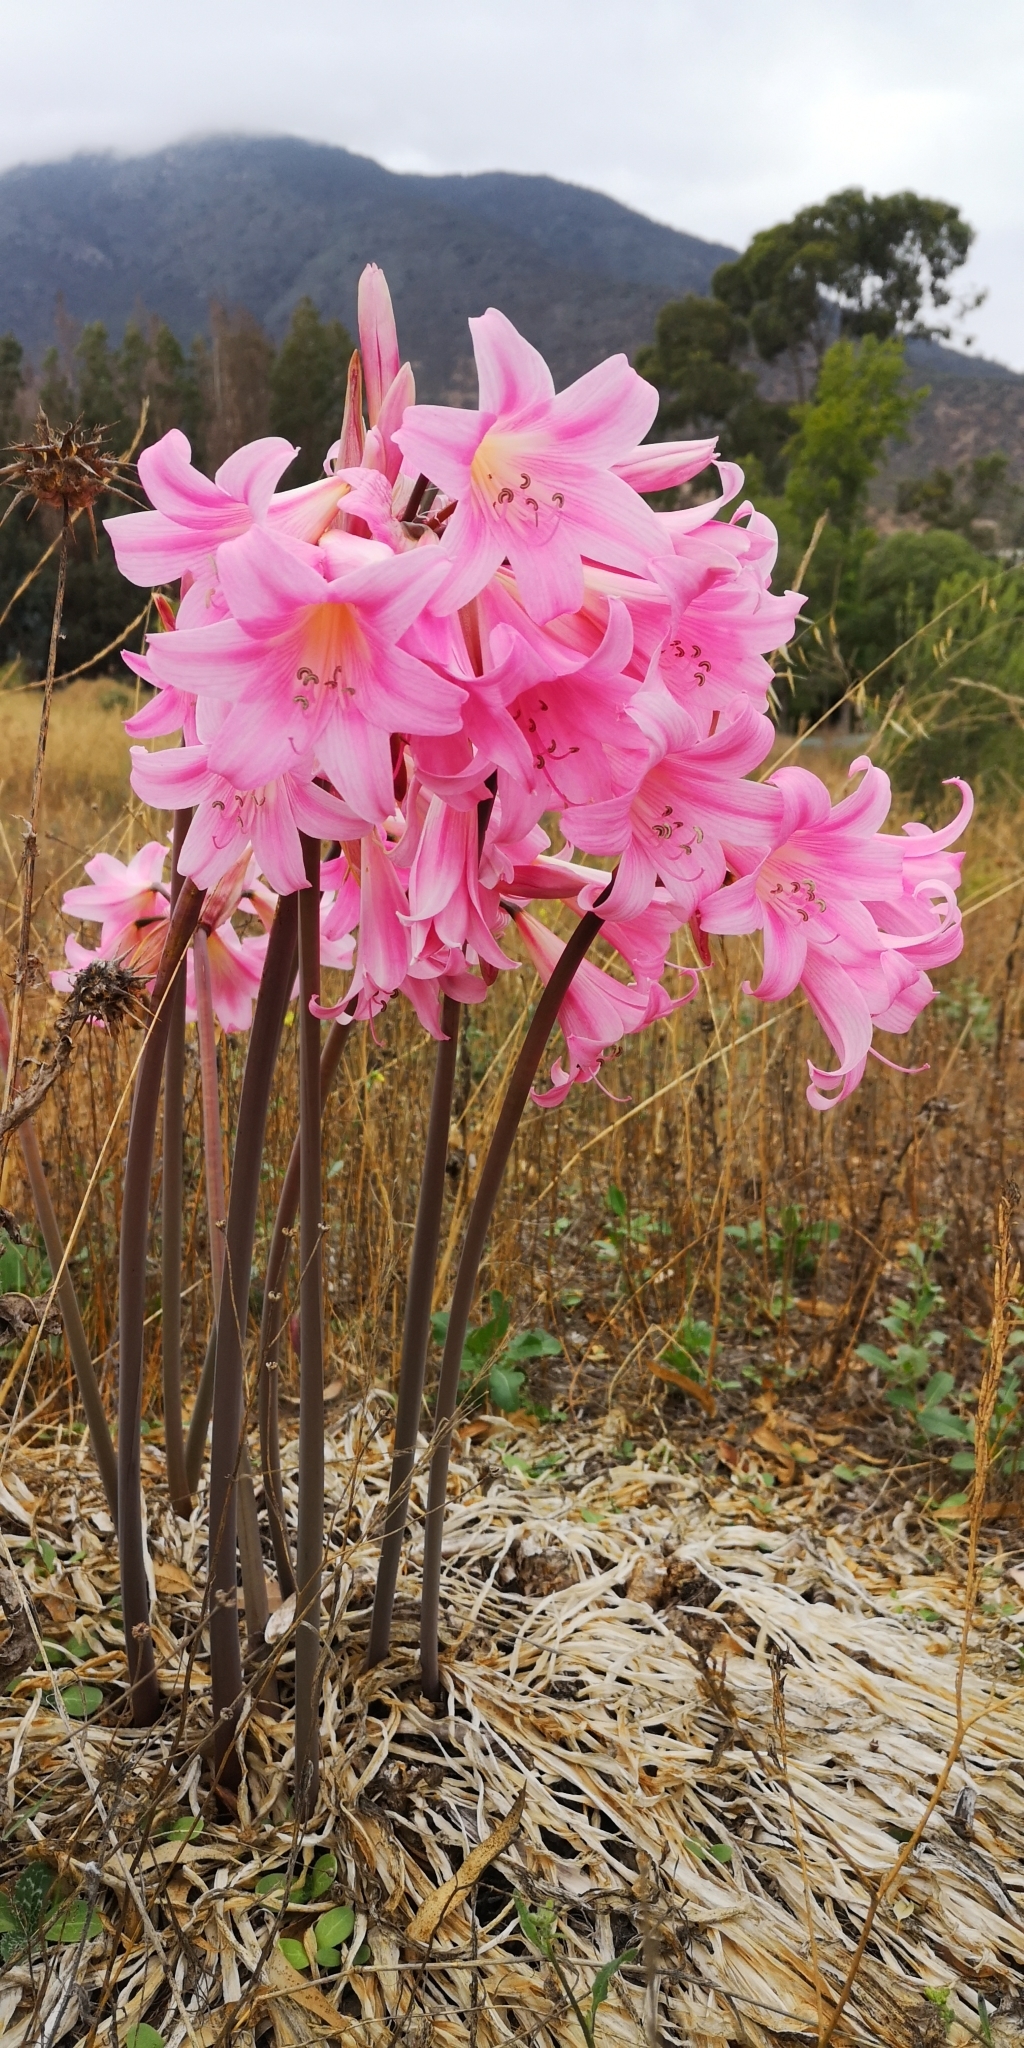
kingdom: Plantae
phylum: Tracheophyta
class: Liliopsida
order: Asparagales
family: Amaryllidaceae
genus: Amaryllis
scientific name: Amaryllis belladonna
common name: Jersey lily
